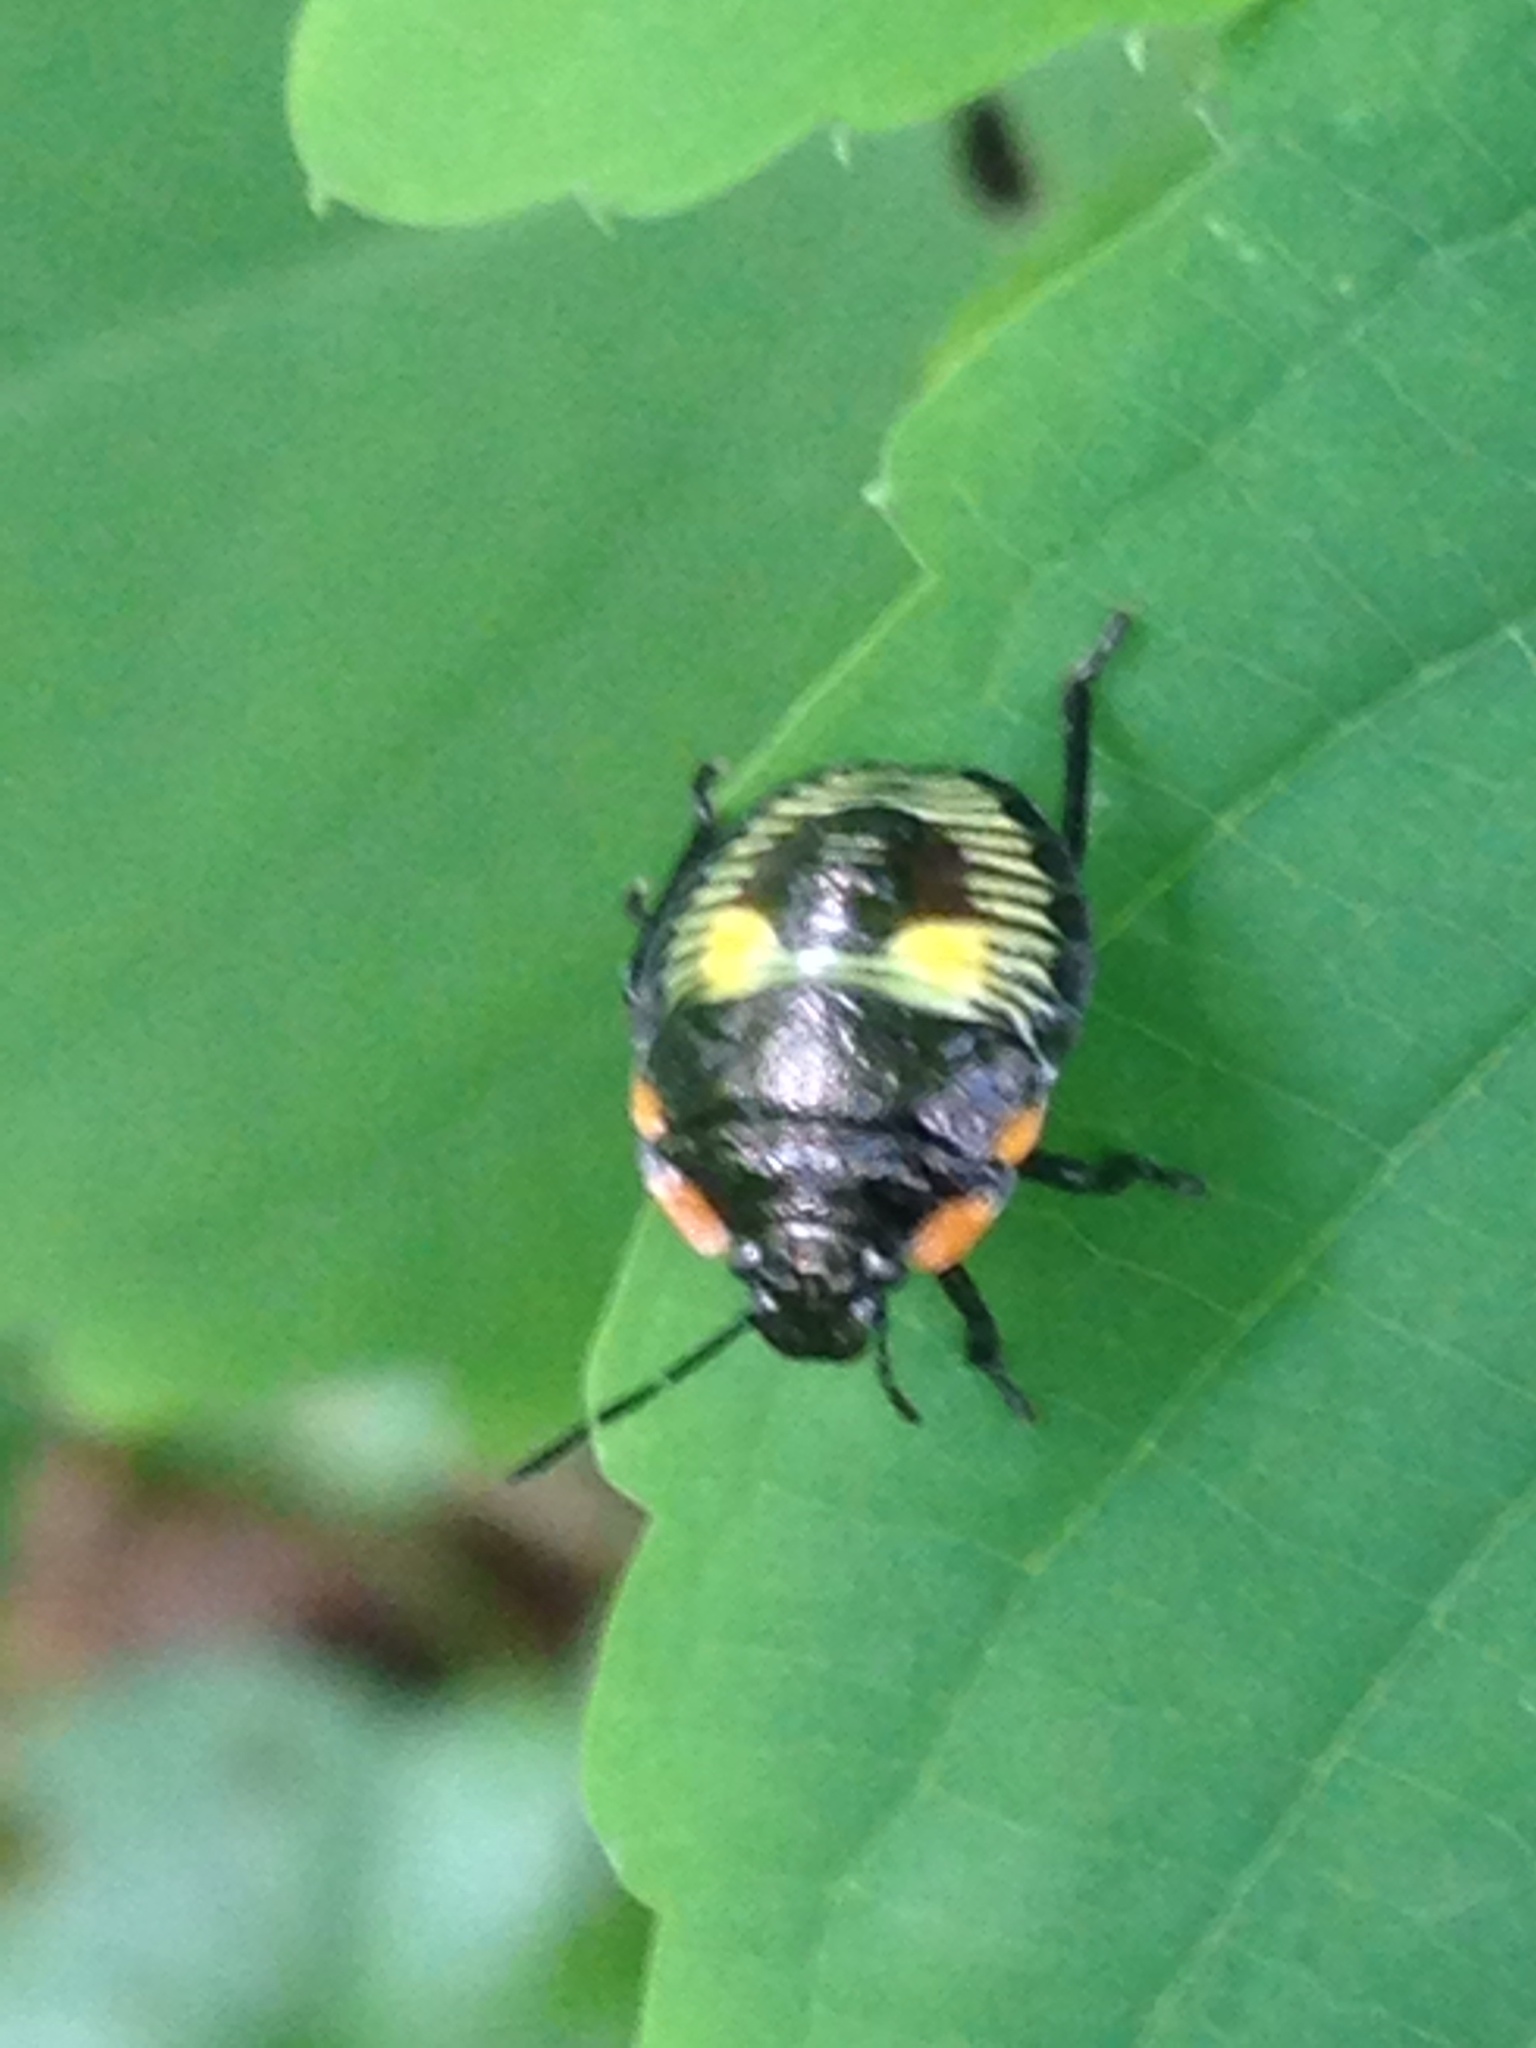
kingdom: Animalia
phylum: Arthropoda
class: Insecta
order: Hemiptera
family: Pentatomidae
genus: Chinavia
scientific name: Chinavia hilaris
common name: Green stink bug
